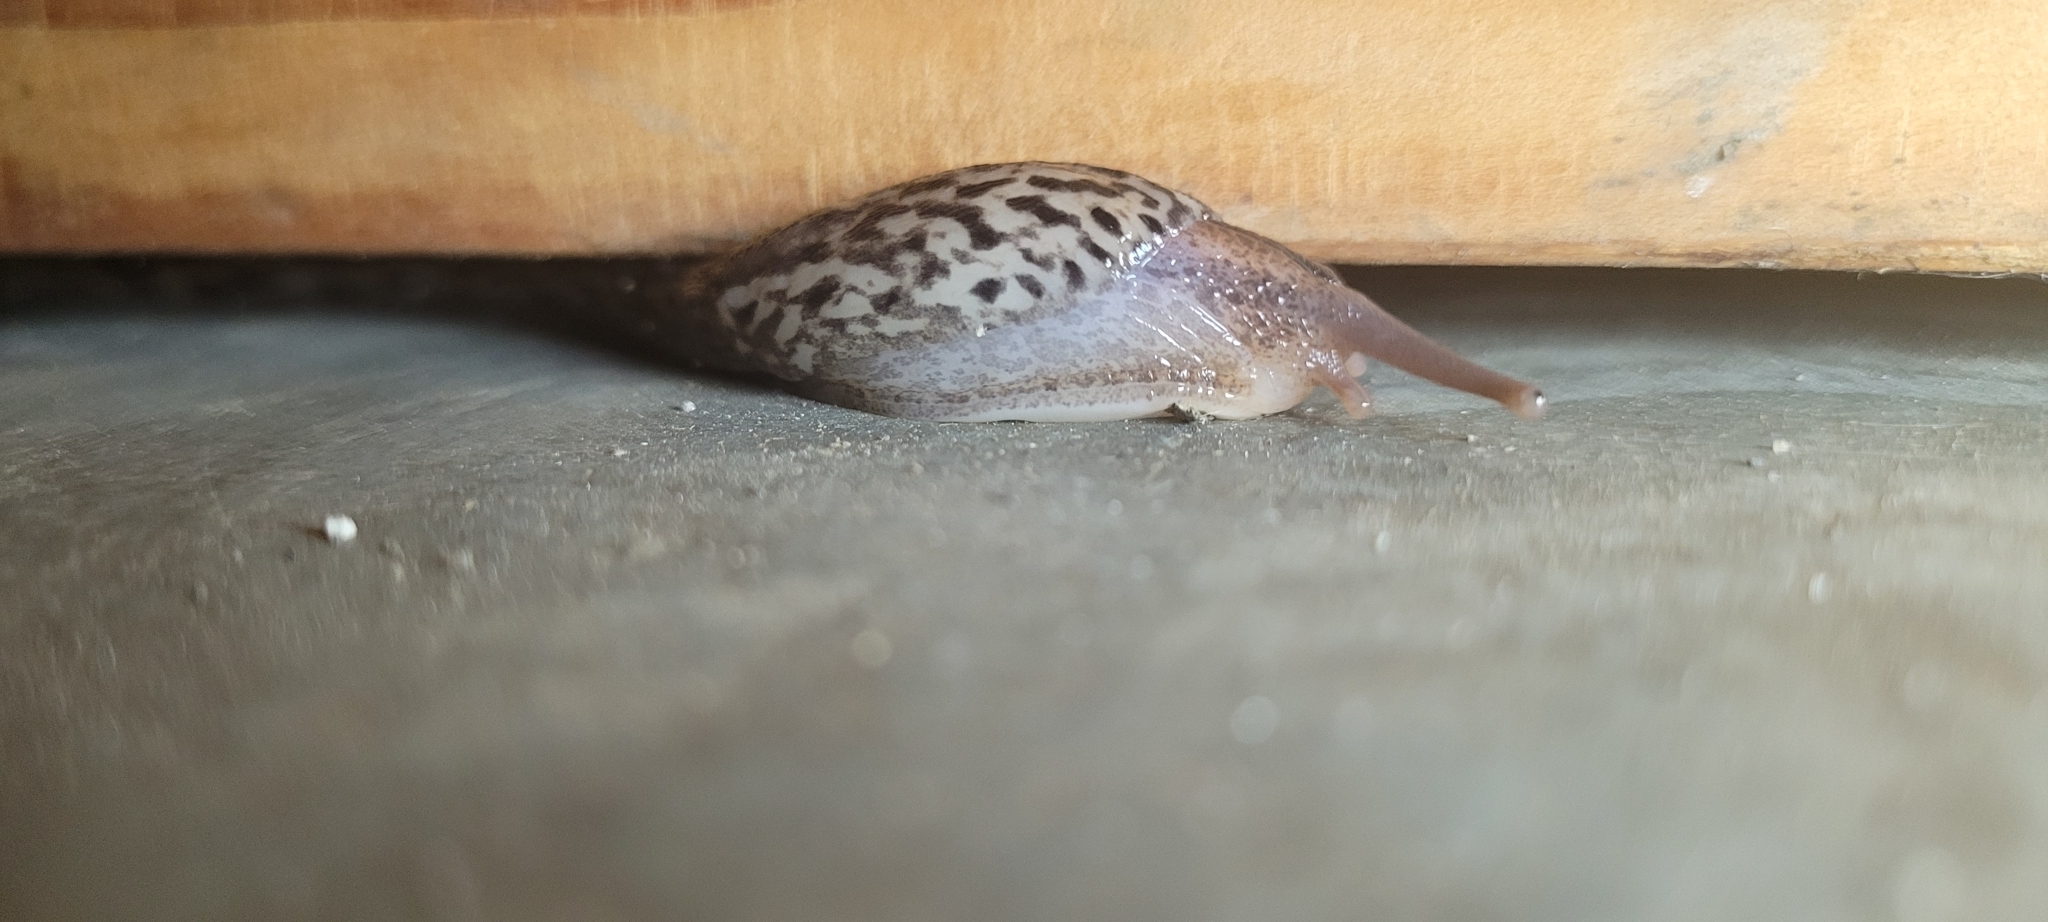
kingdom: Animalia
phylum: Mollusca
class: Gastropoda
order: Stylommatophora
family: Limacidae
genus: Limax
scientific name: Limax maximus
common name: Great grey slug
